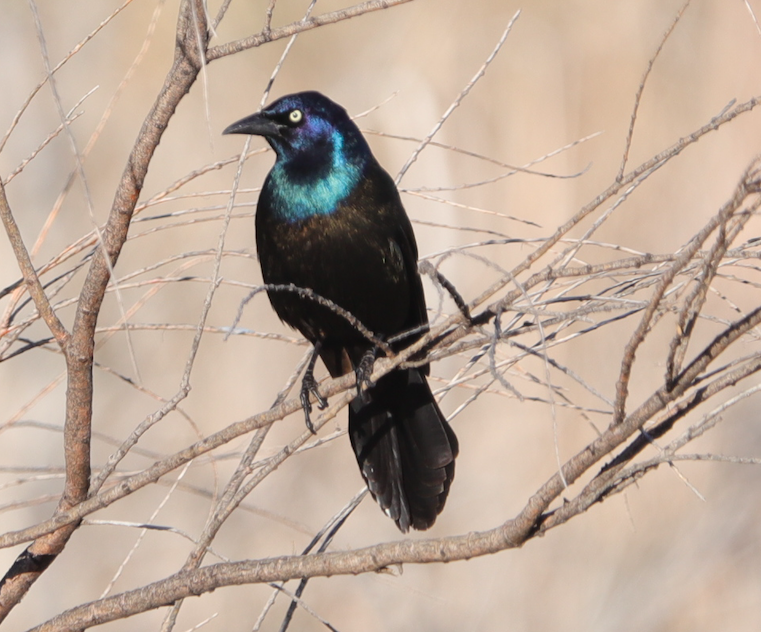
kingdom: Animalia
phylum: Chordata
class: Aves
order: Passeriformes
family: Icteridae
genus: Quiscalus
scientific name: Quiscalus quiscula
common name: Common grackle
